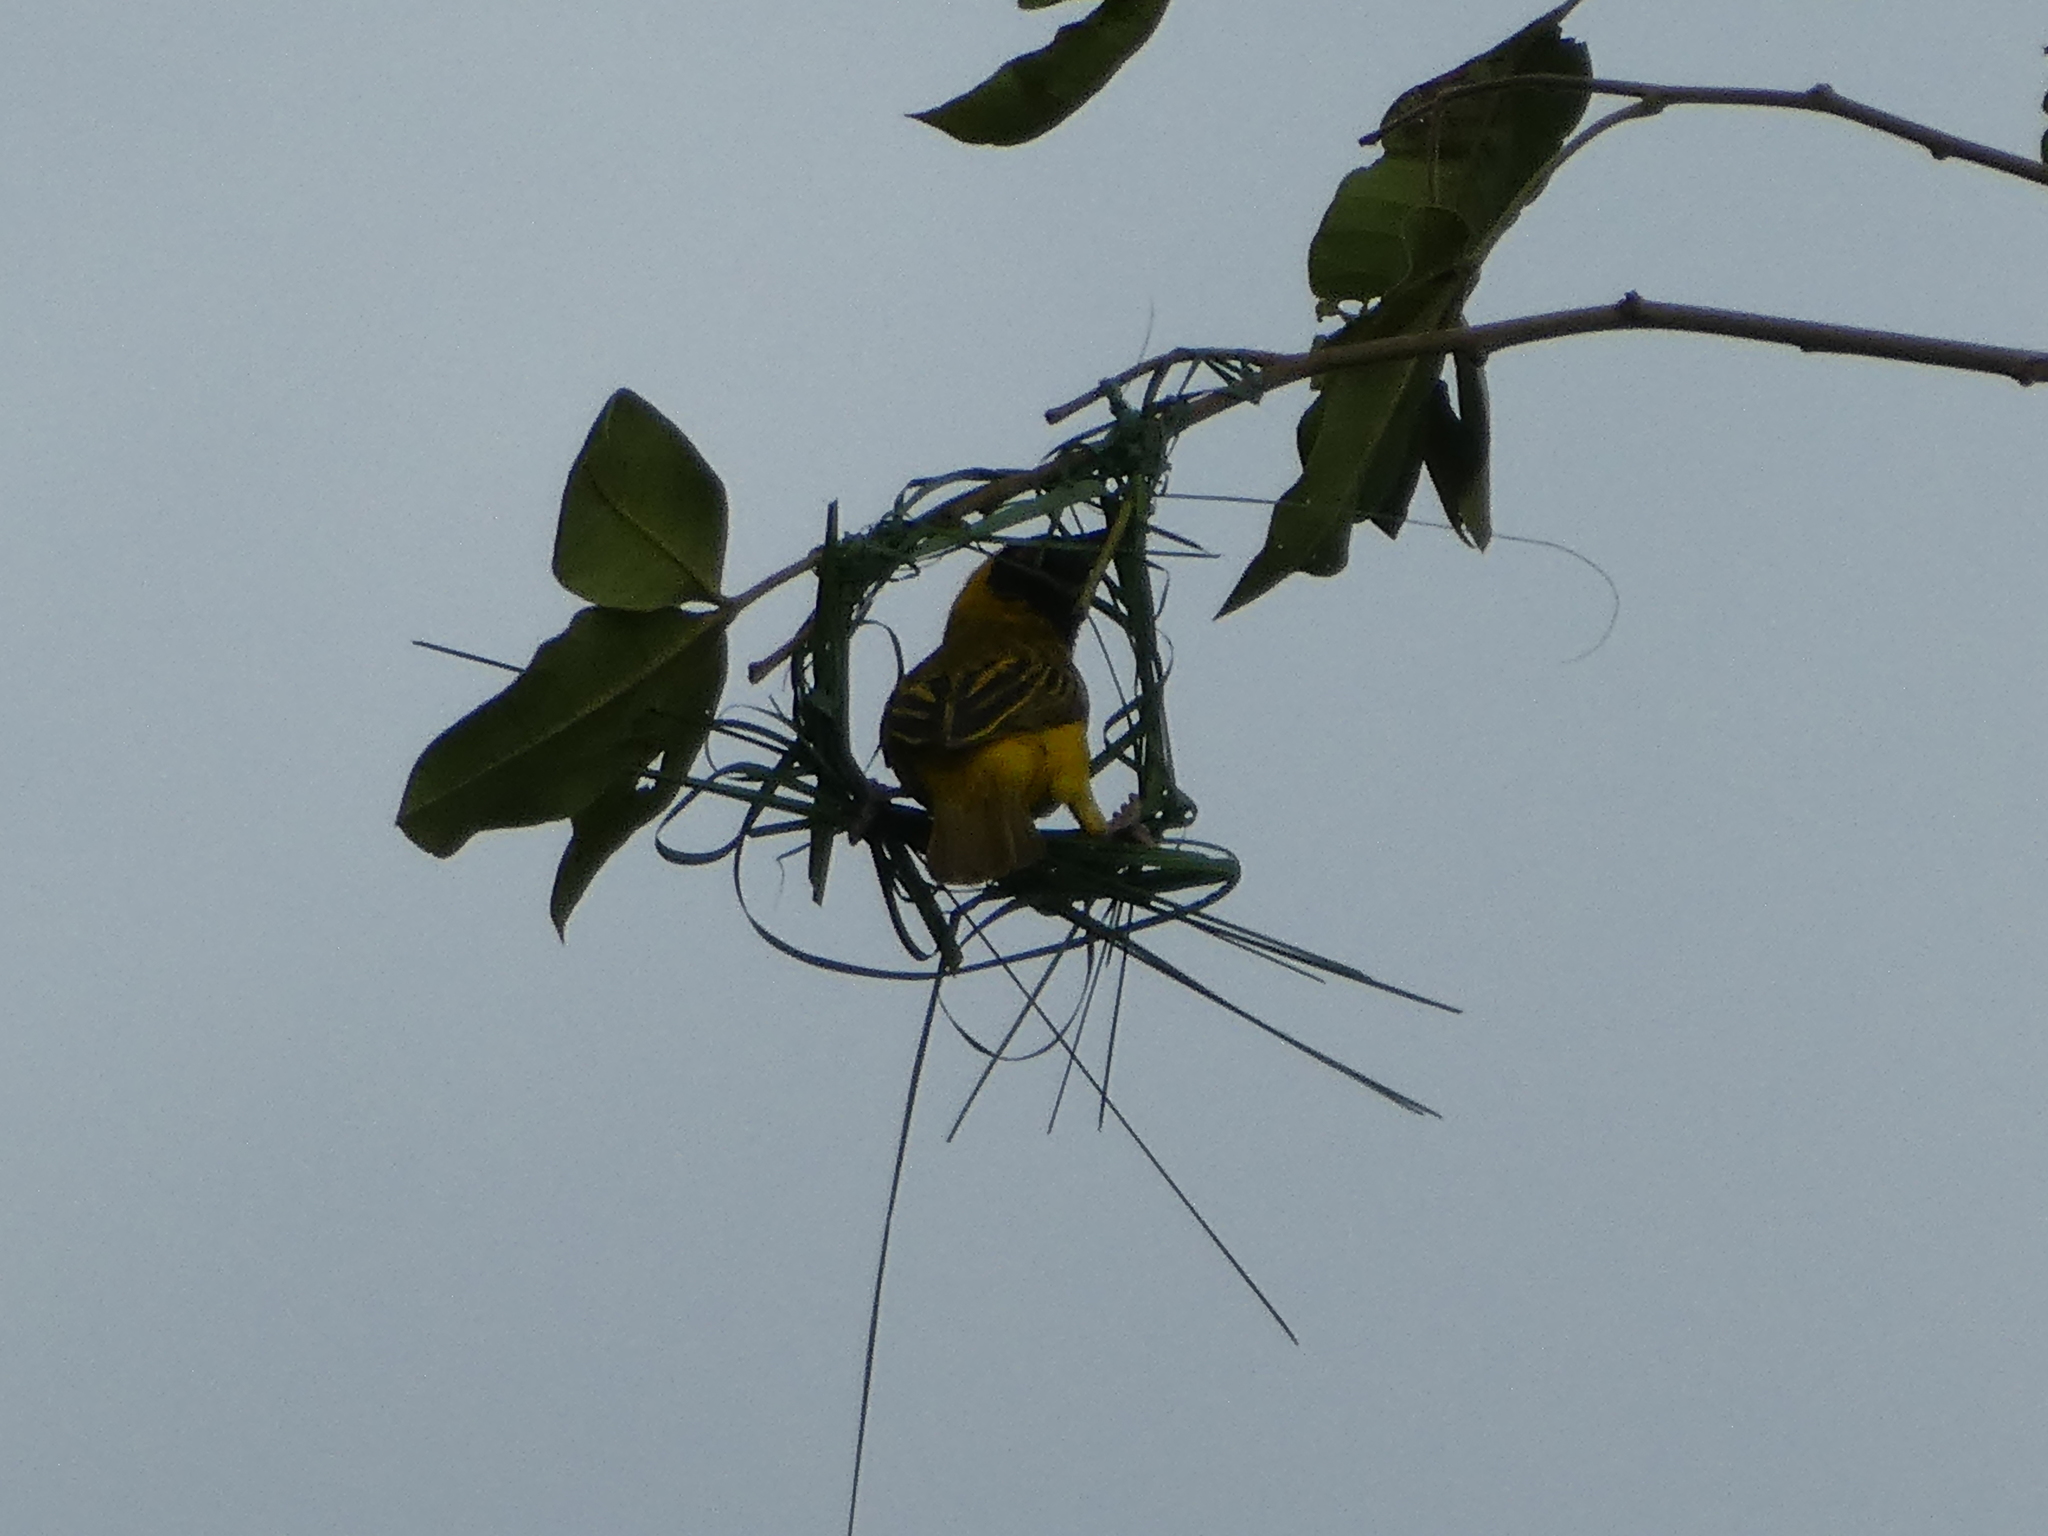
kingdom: Animalia
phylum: Chordata
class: Aves
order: Passeriformes
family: Ploceidae
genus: Ploceus
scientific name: Ploceus velatus
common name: Southern masked weaver
